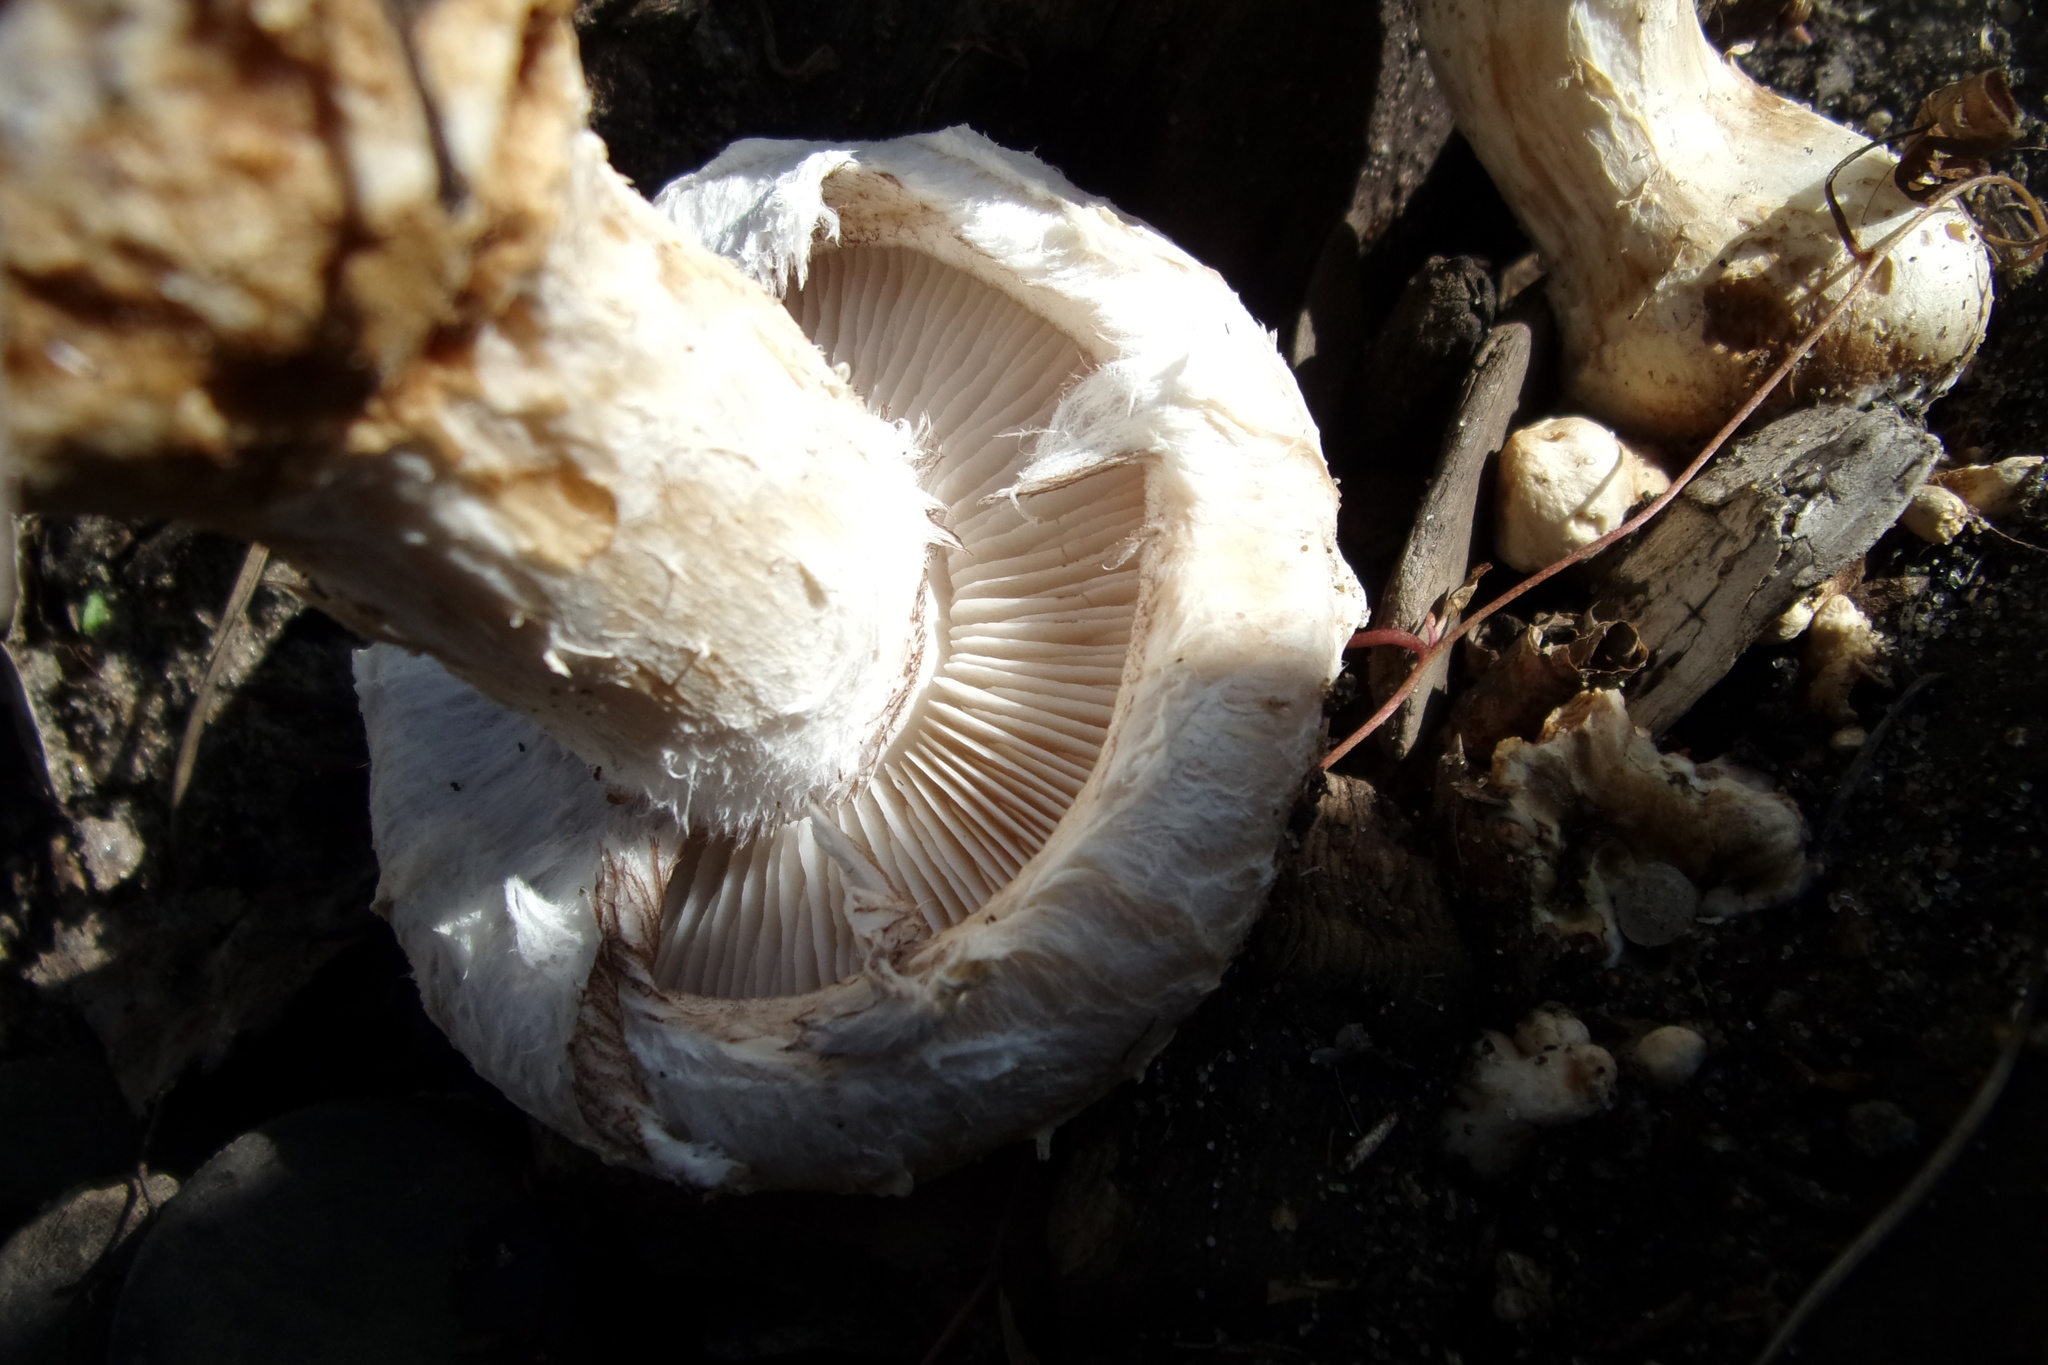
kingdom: Fungi
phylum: Basidiomycota
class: Agaricomycetes
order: Agaricales
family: Strophariaceae
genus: Pholiota
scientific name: Pholiota populnea
